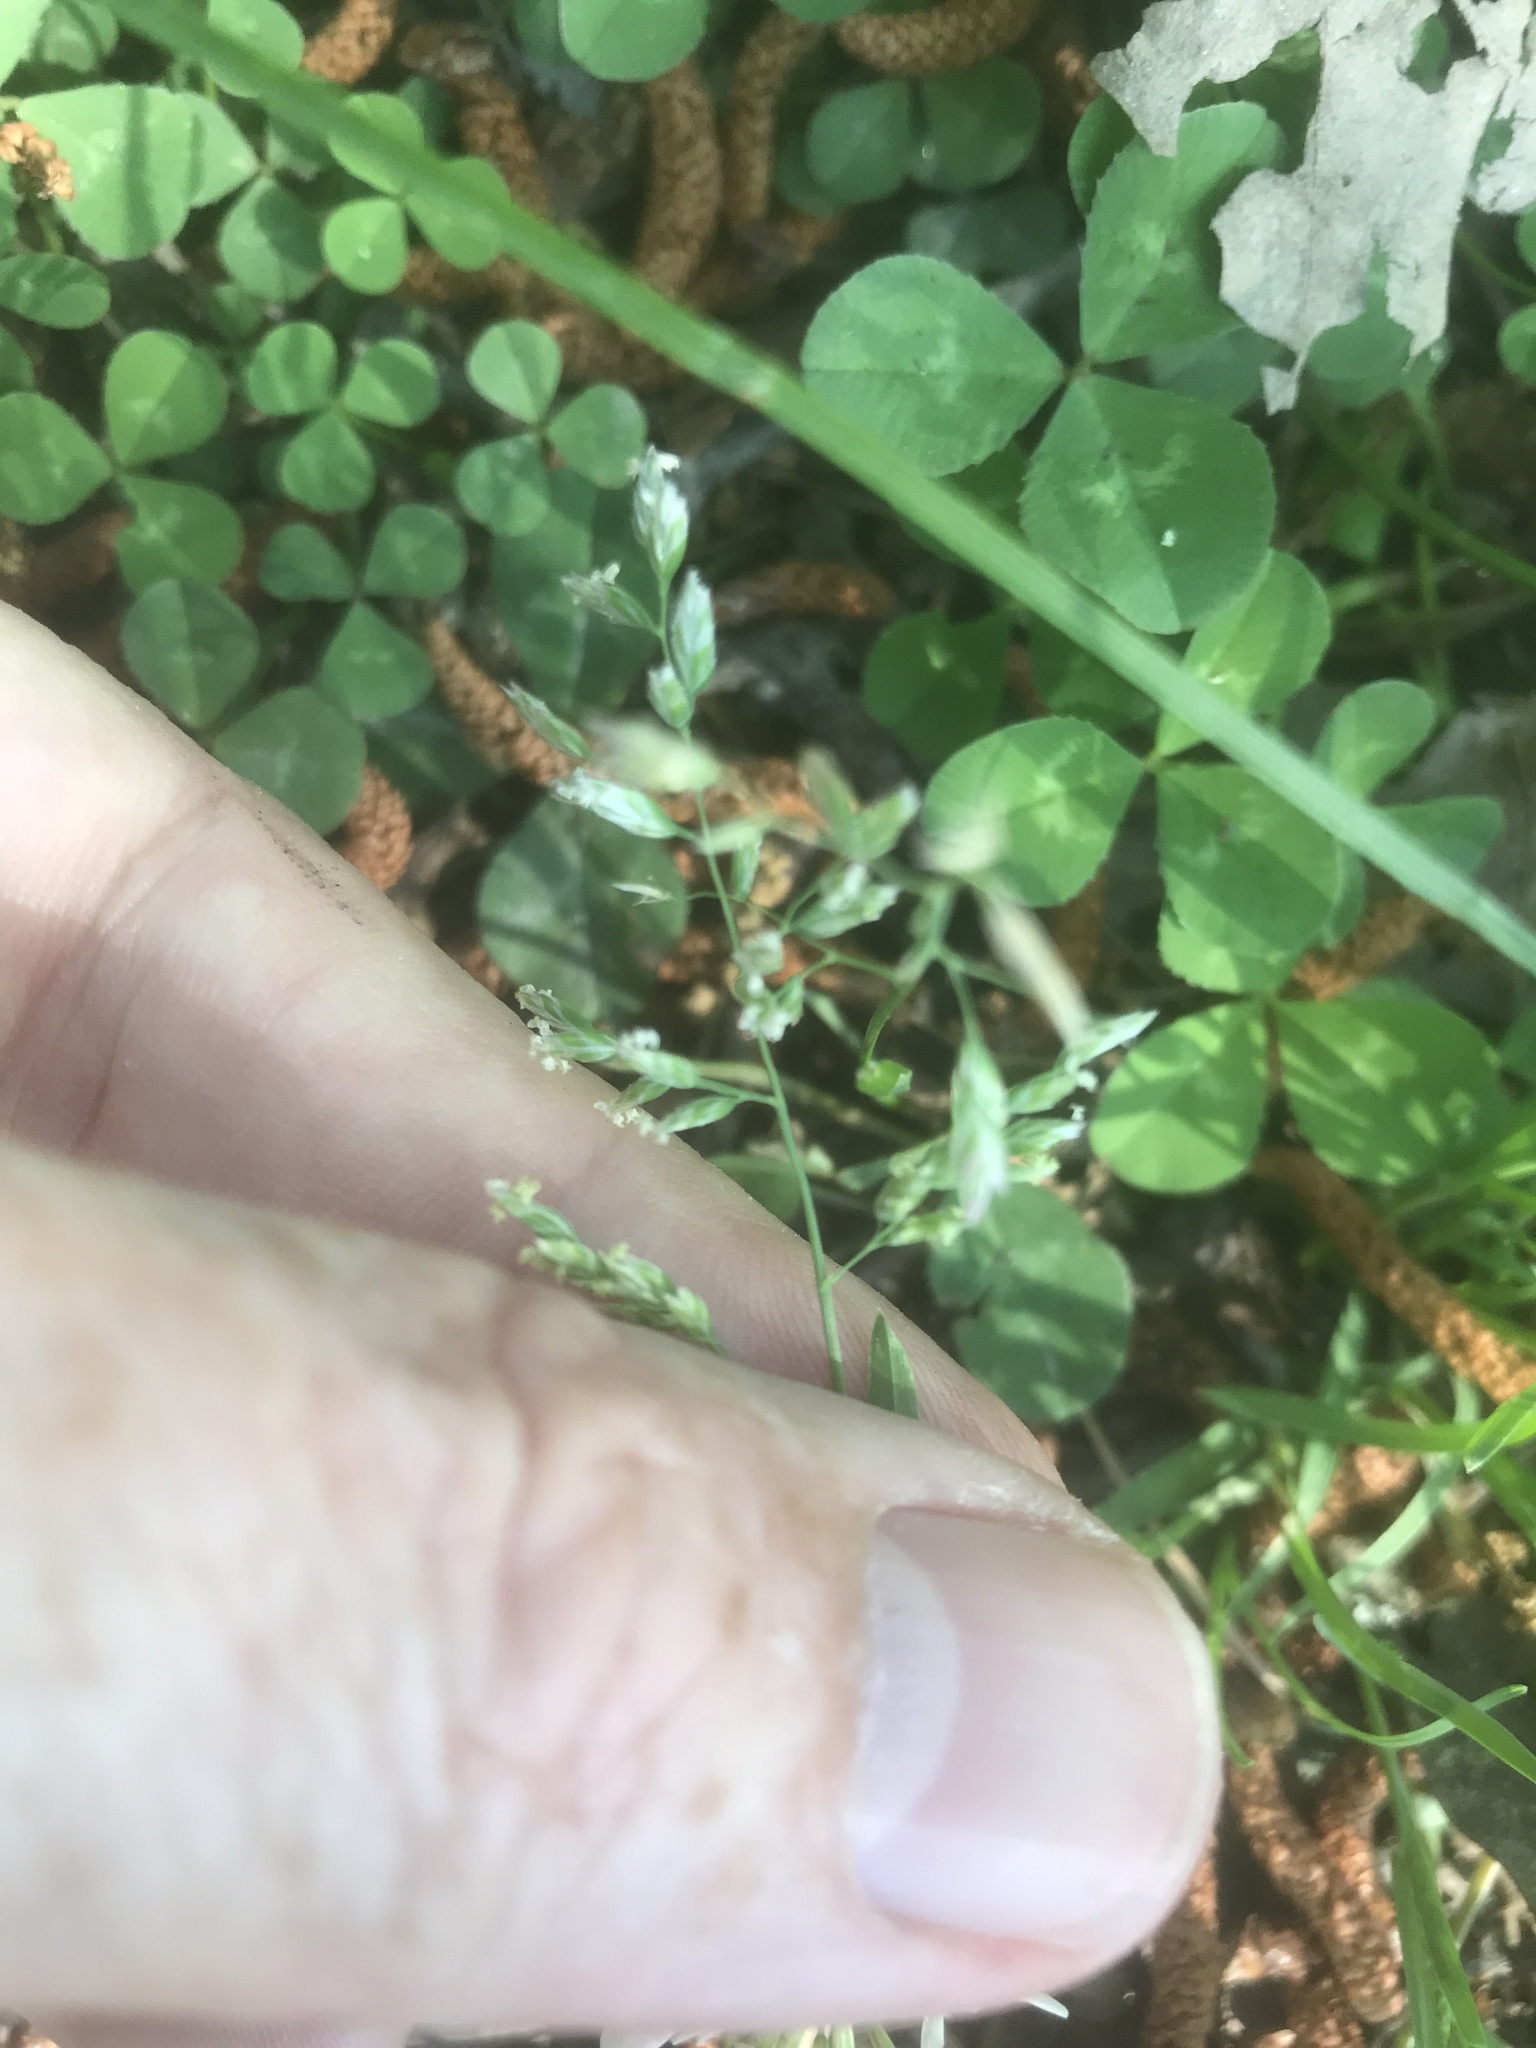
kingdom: Plantae
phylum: Tracheophyta
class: Liliopsida
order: Poales
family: Poaceae
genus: Poa
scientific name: Poa annua
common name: Annual bluegrass
